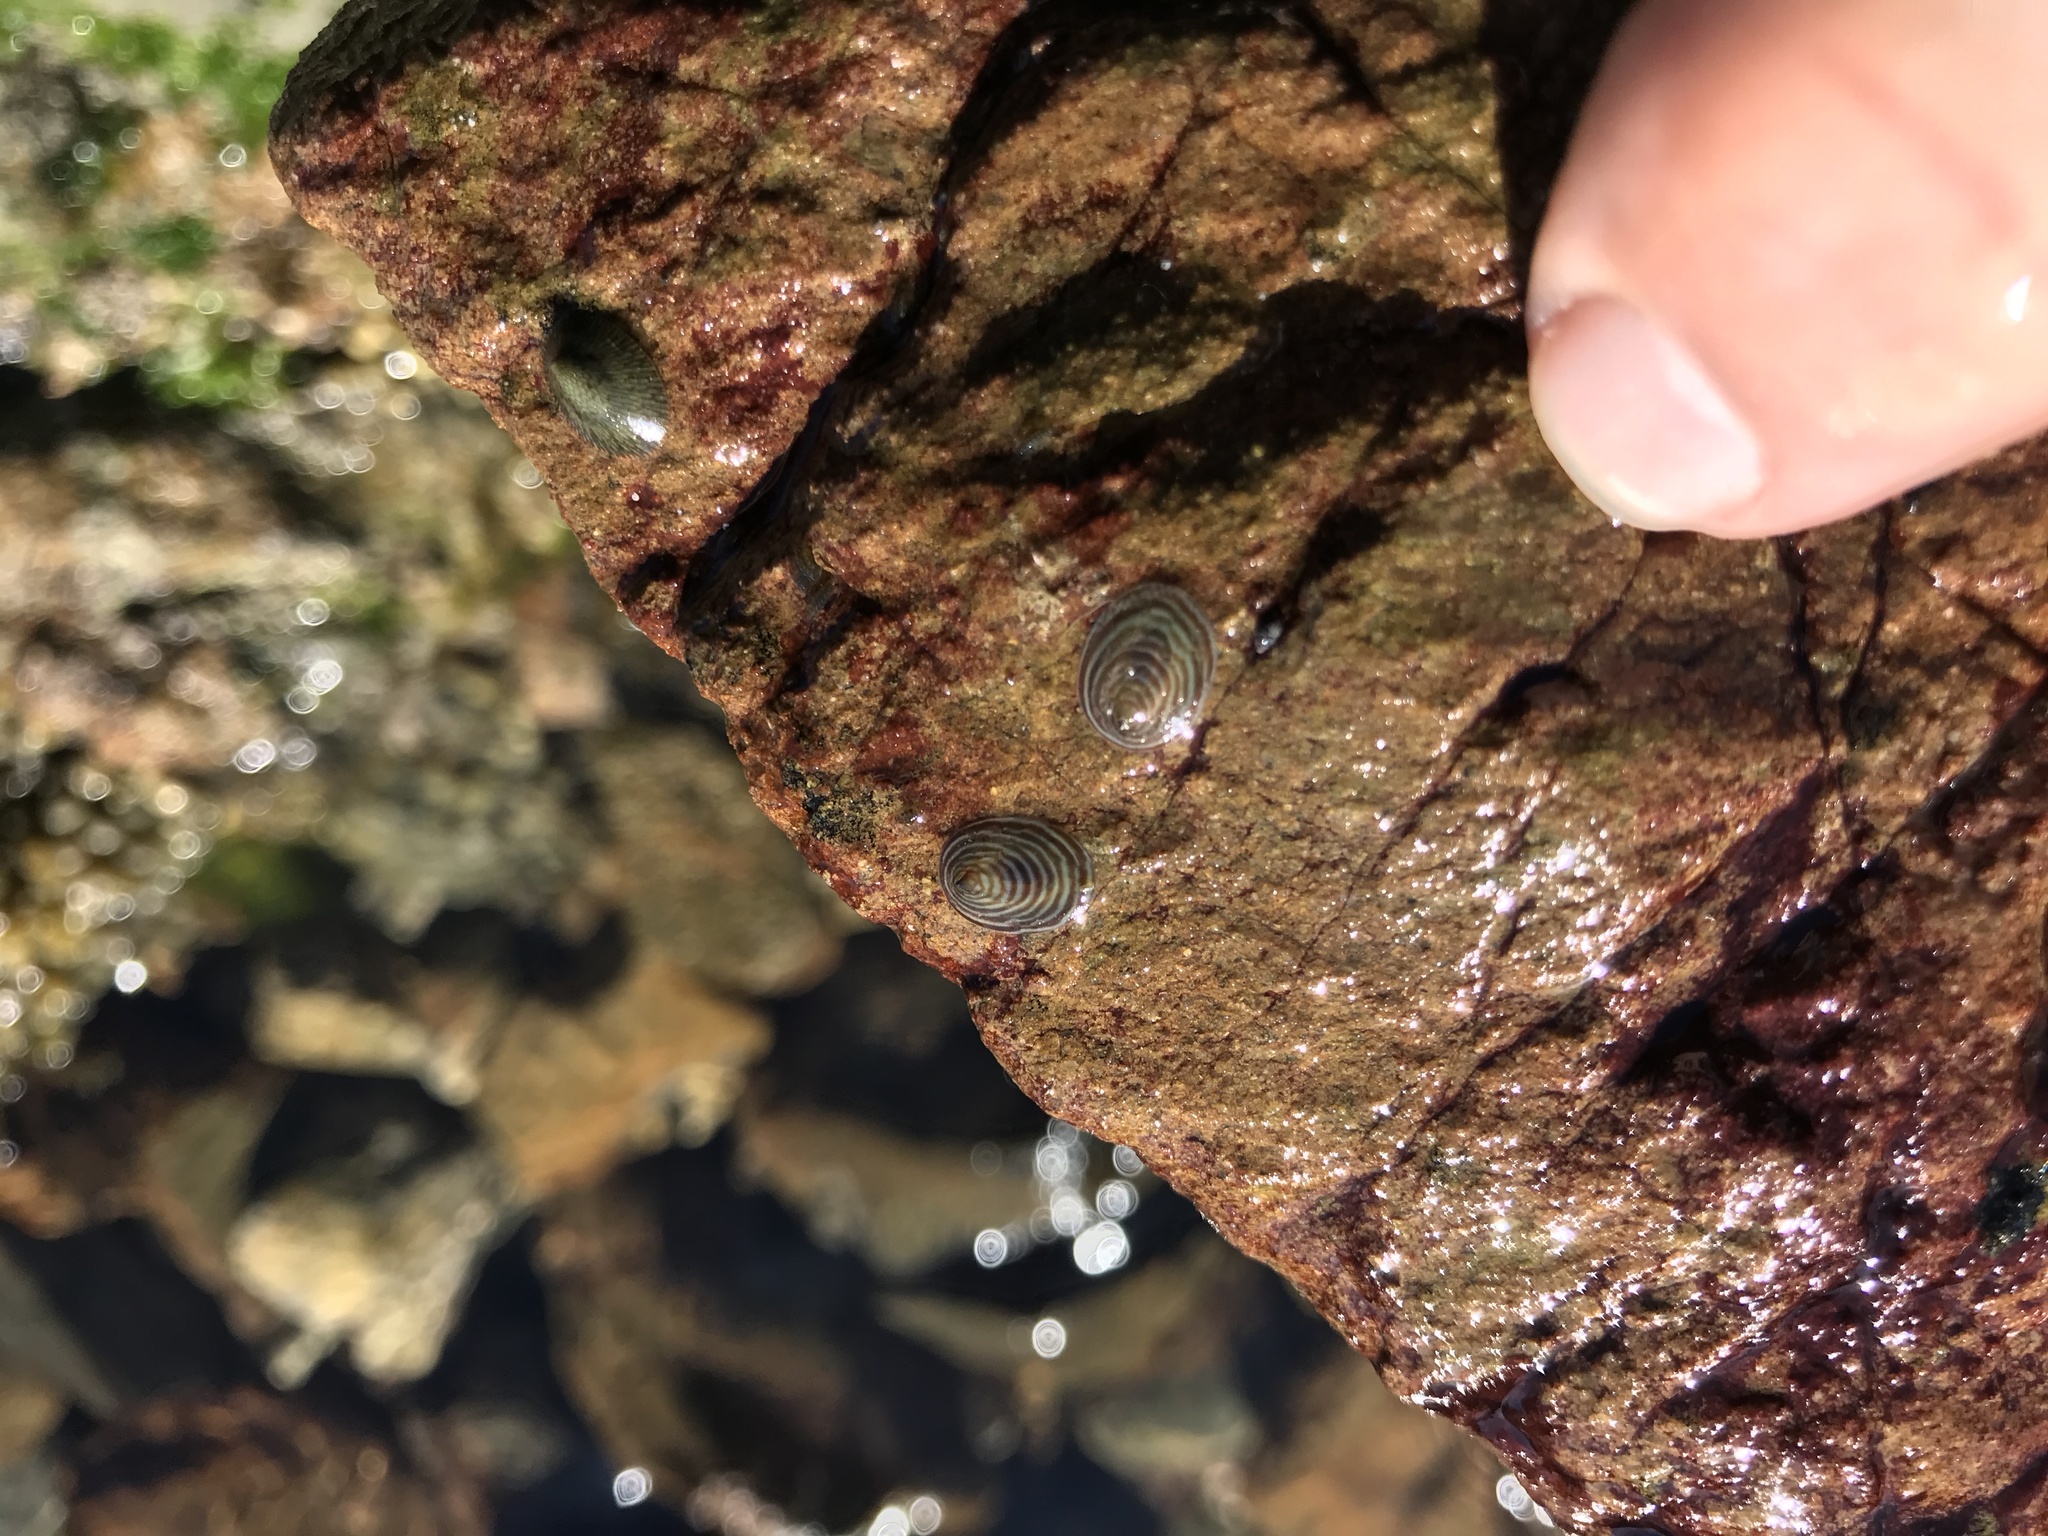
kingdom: Animalia
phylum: Mollusca
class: Gastropoda
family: Lottiidae
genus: Atalacmea
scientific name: Atalacmea fragilis
